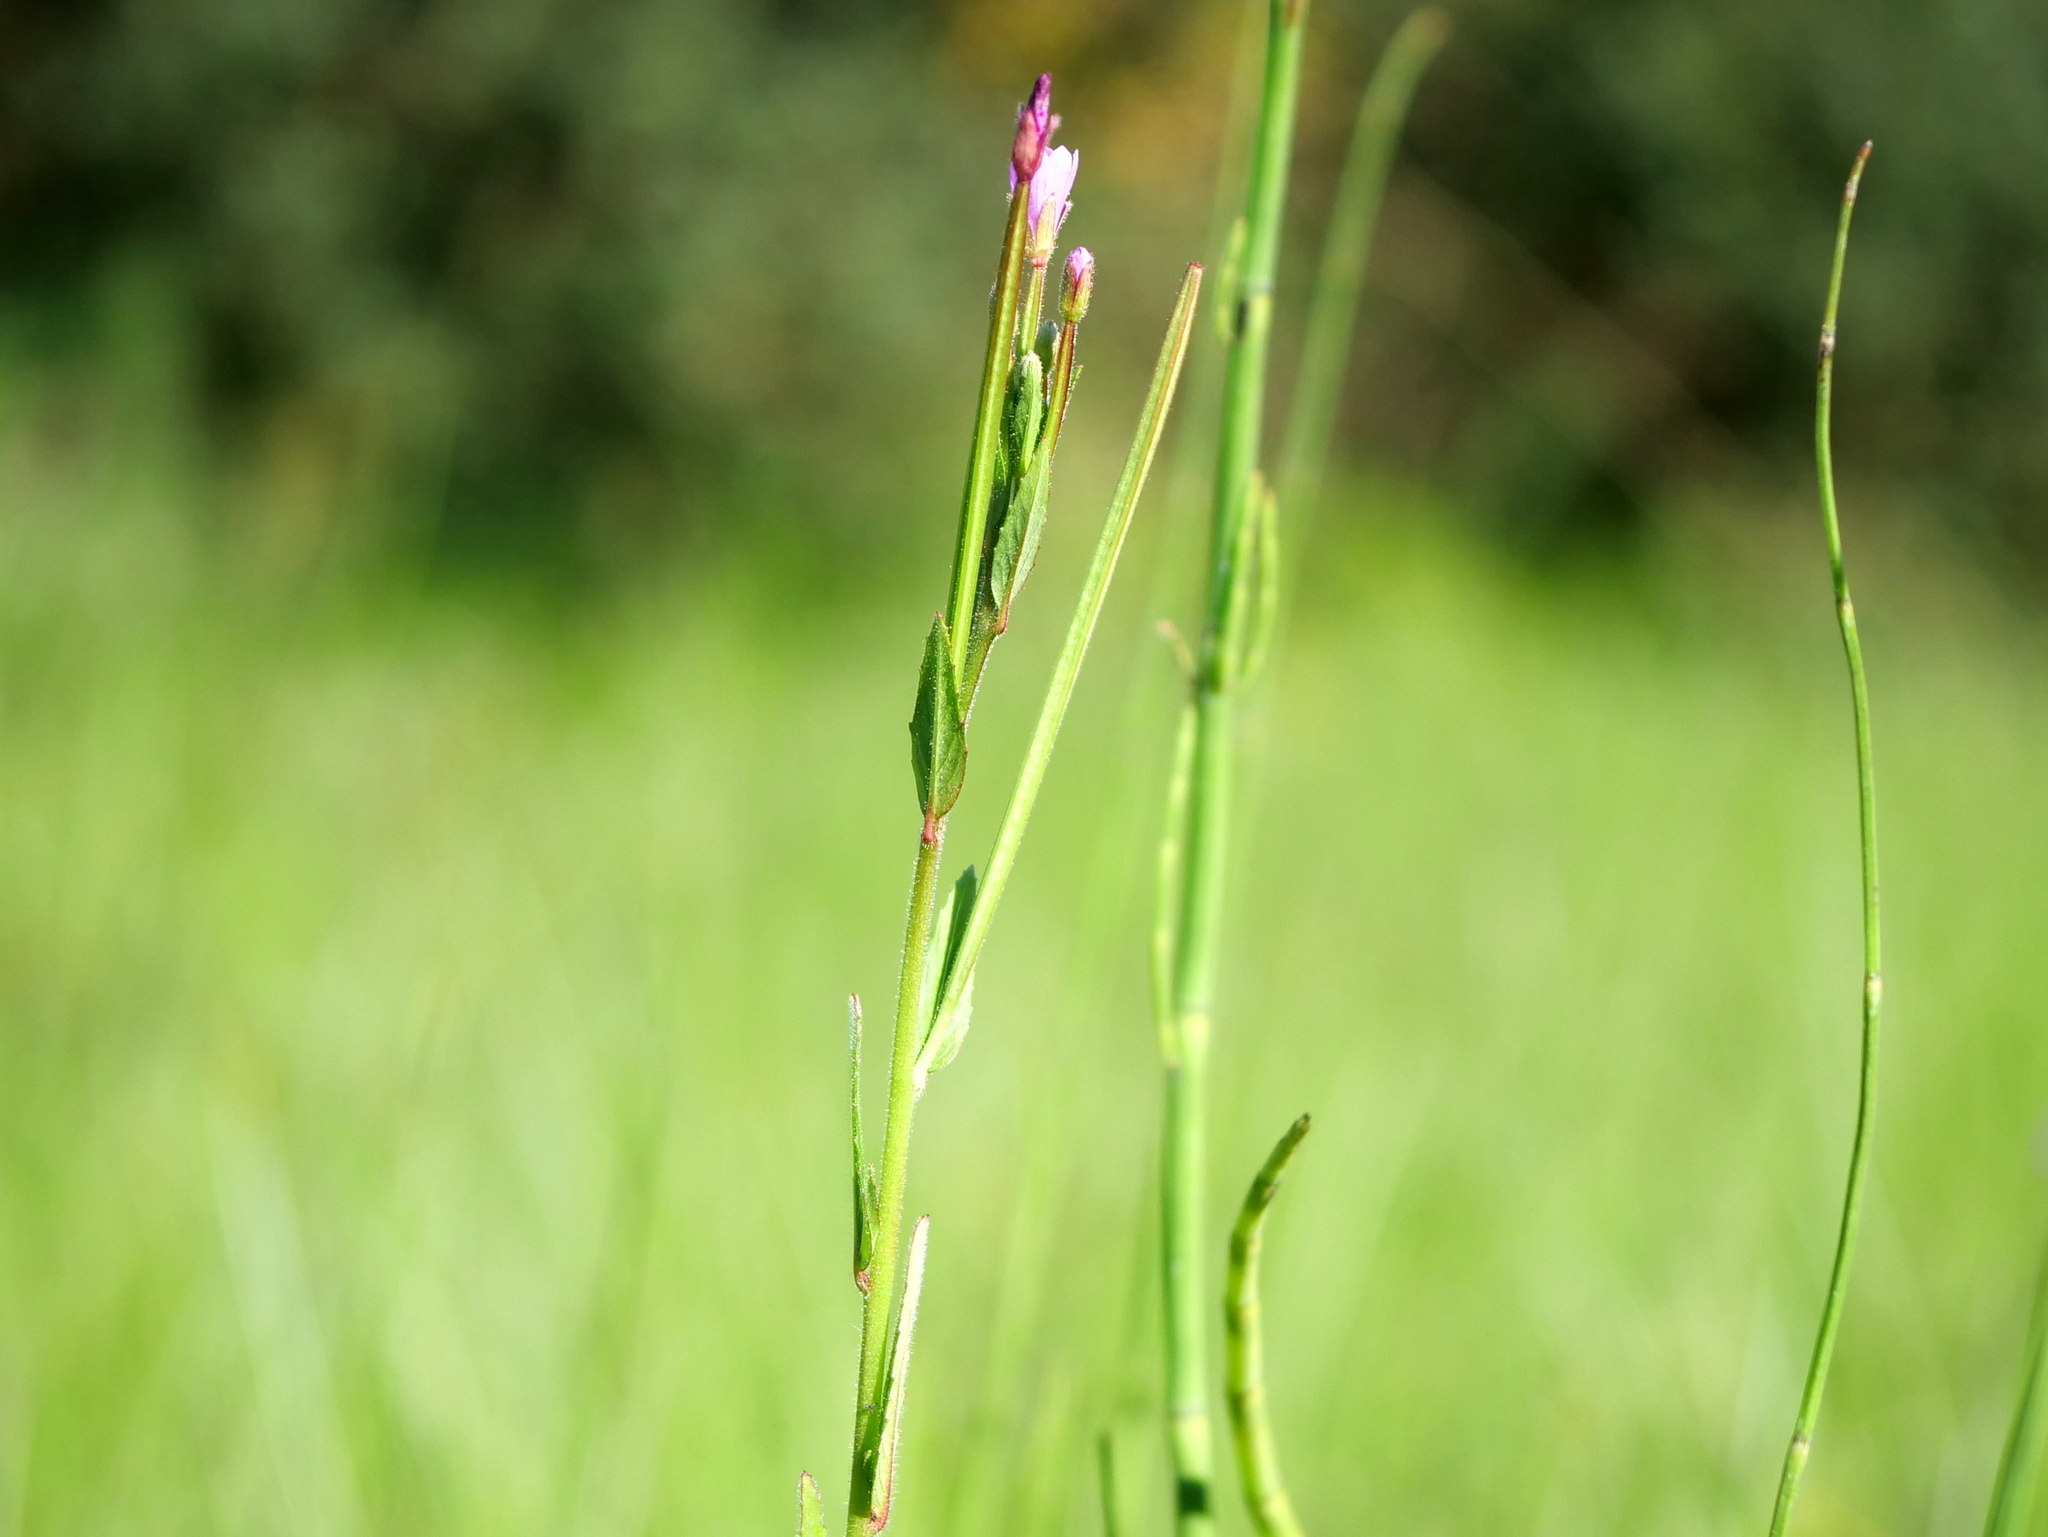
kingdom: Plantae
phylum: Tracheophyta
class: Magnoliopsida
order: Myrtales
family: Onagraceae
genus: Epilobium
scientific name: Epilobium parviflorum
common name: Hoary willowherb
